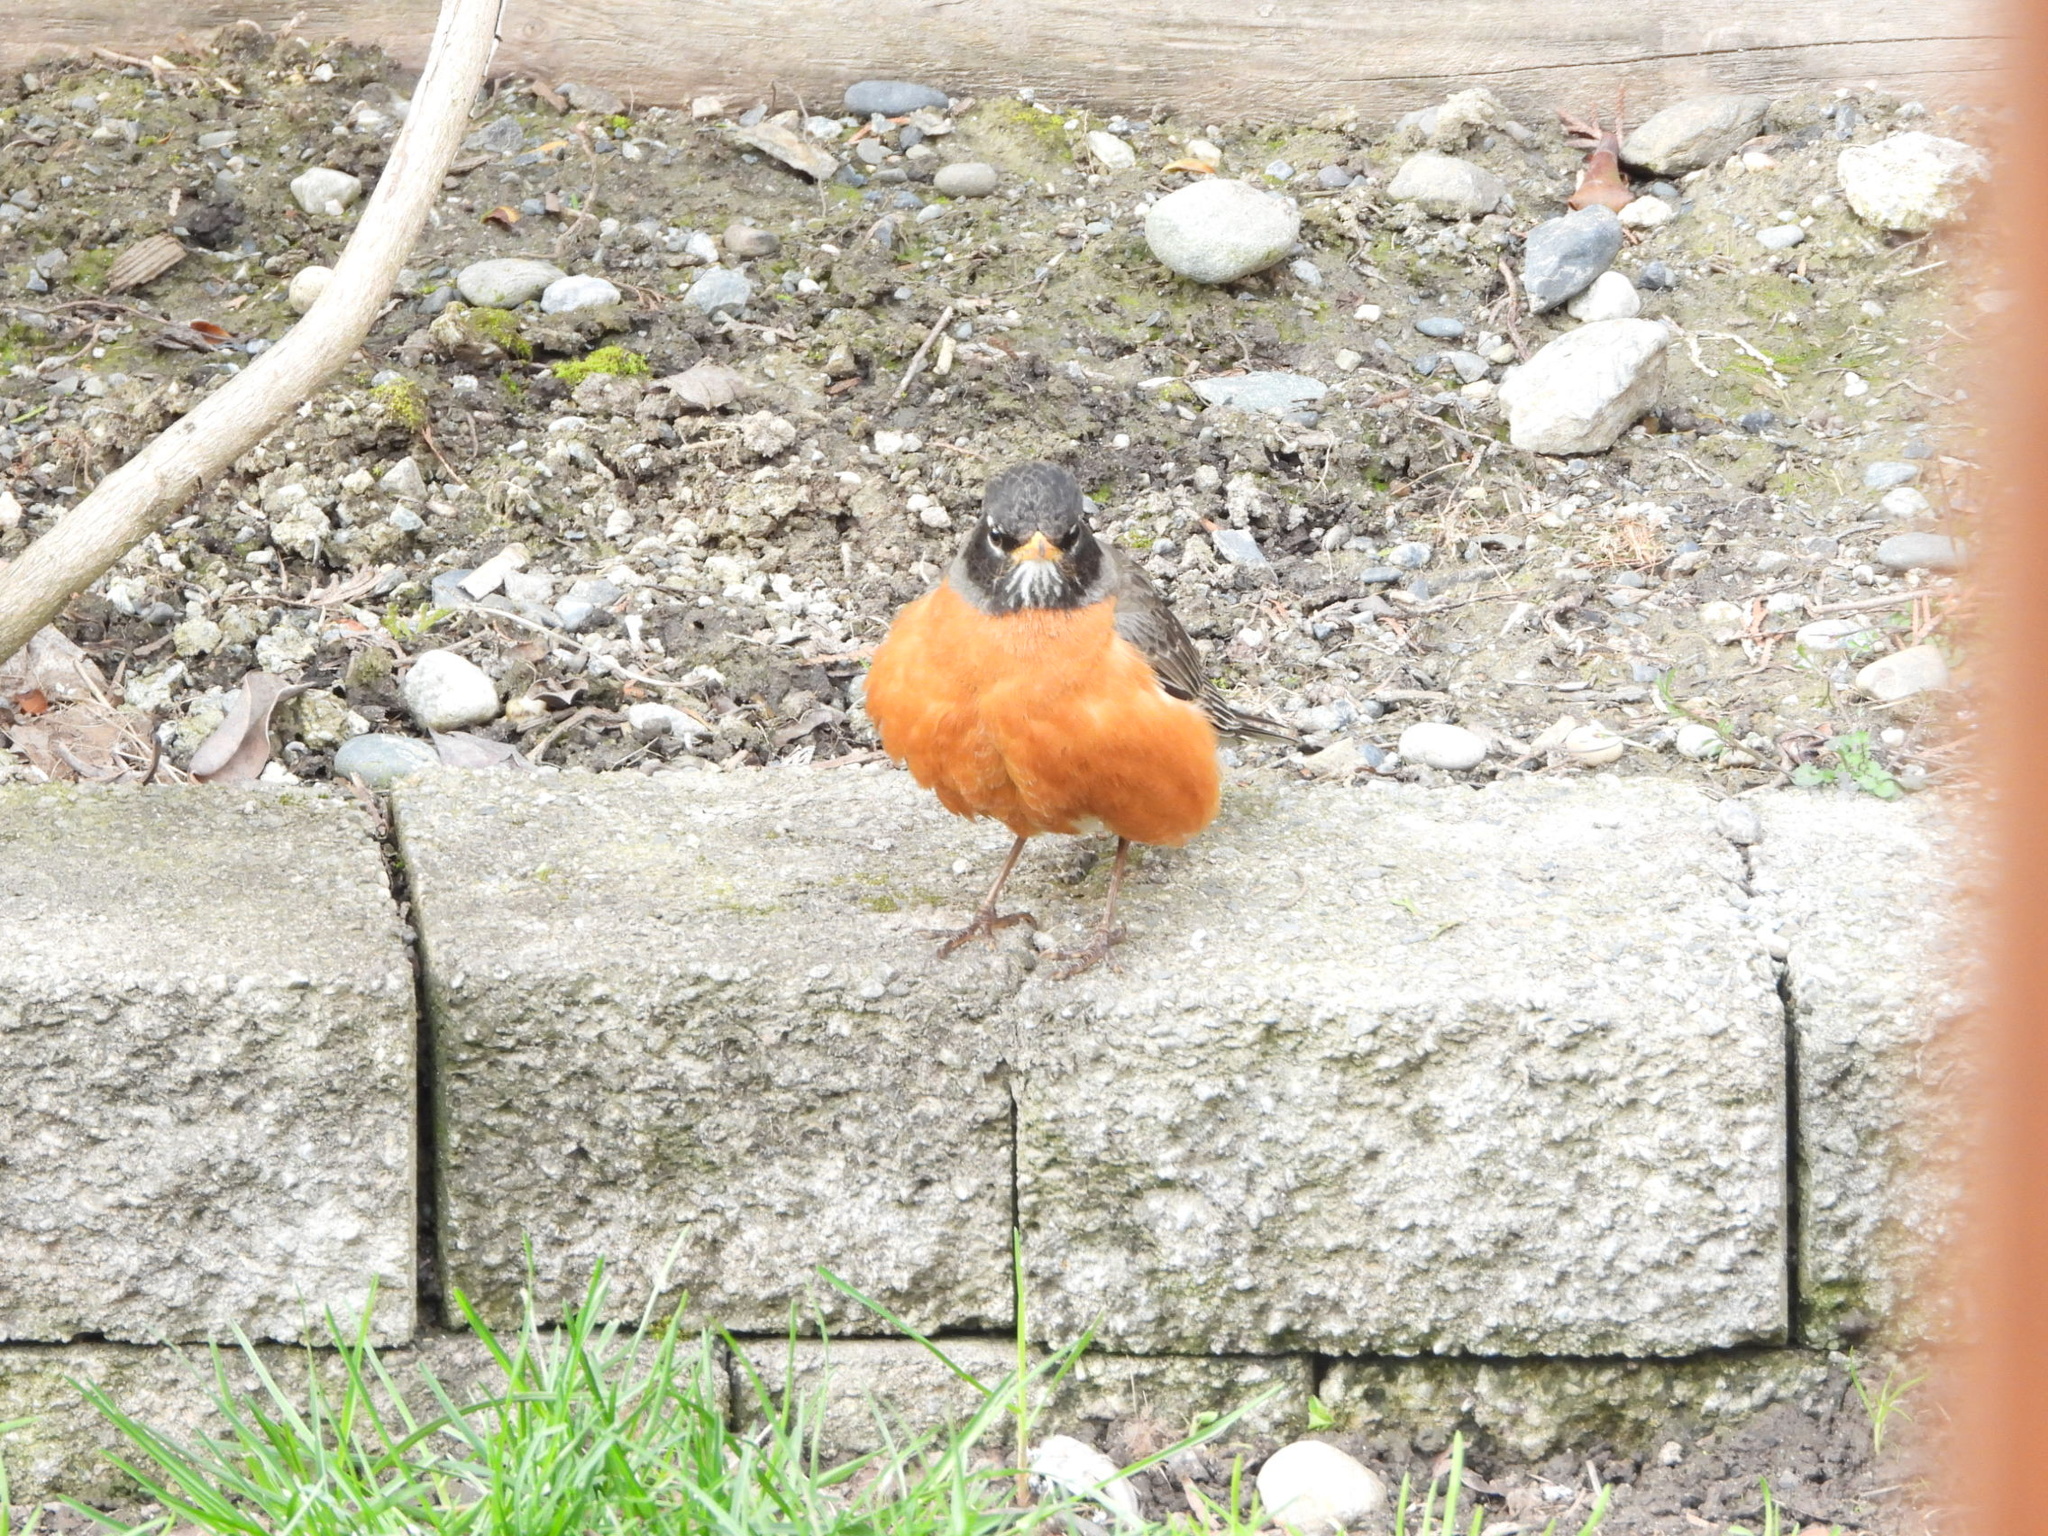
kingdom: Animalia
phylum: Chordata
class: Aves
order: Passeriformes
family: Turdidae
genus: Turdus
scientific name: Turdus migratorius
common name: American robin
